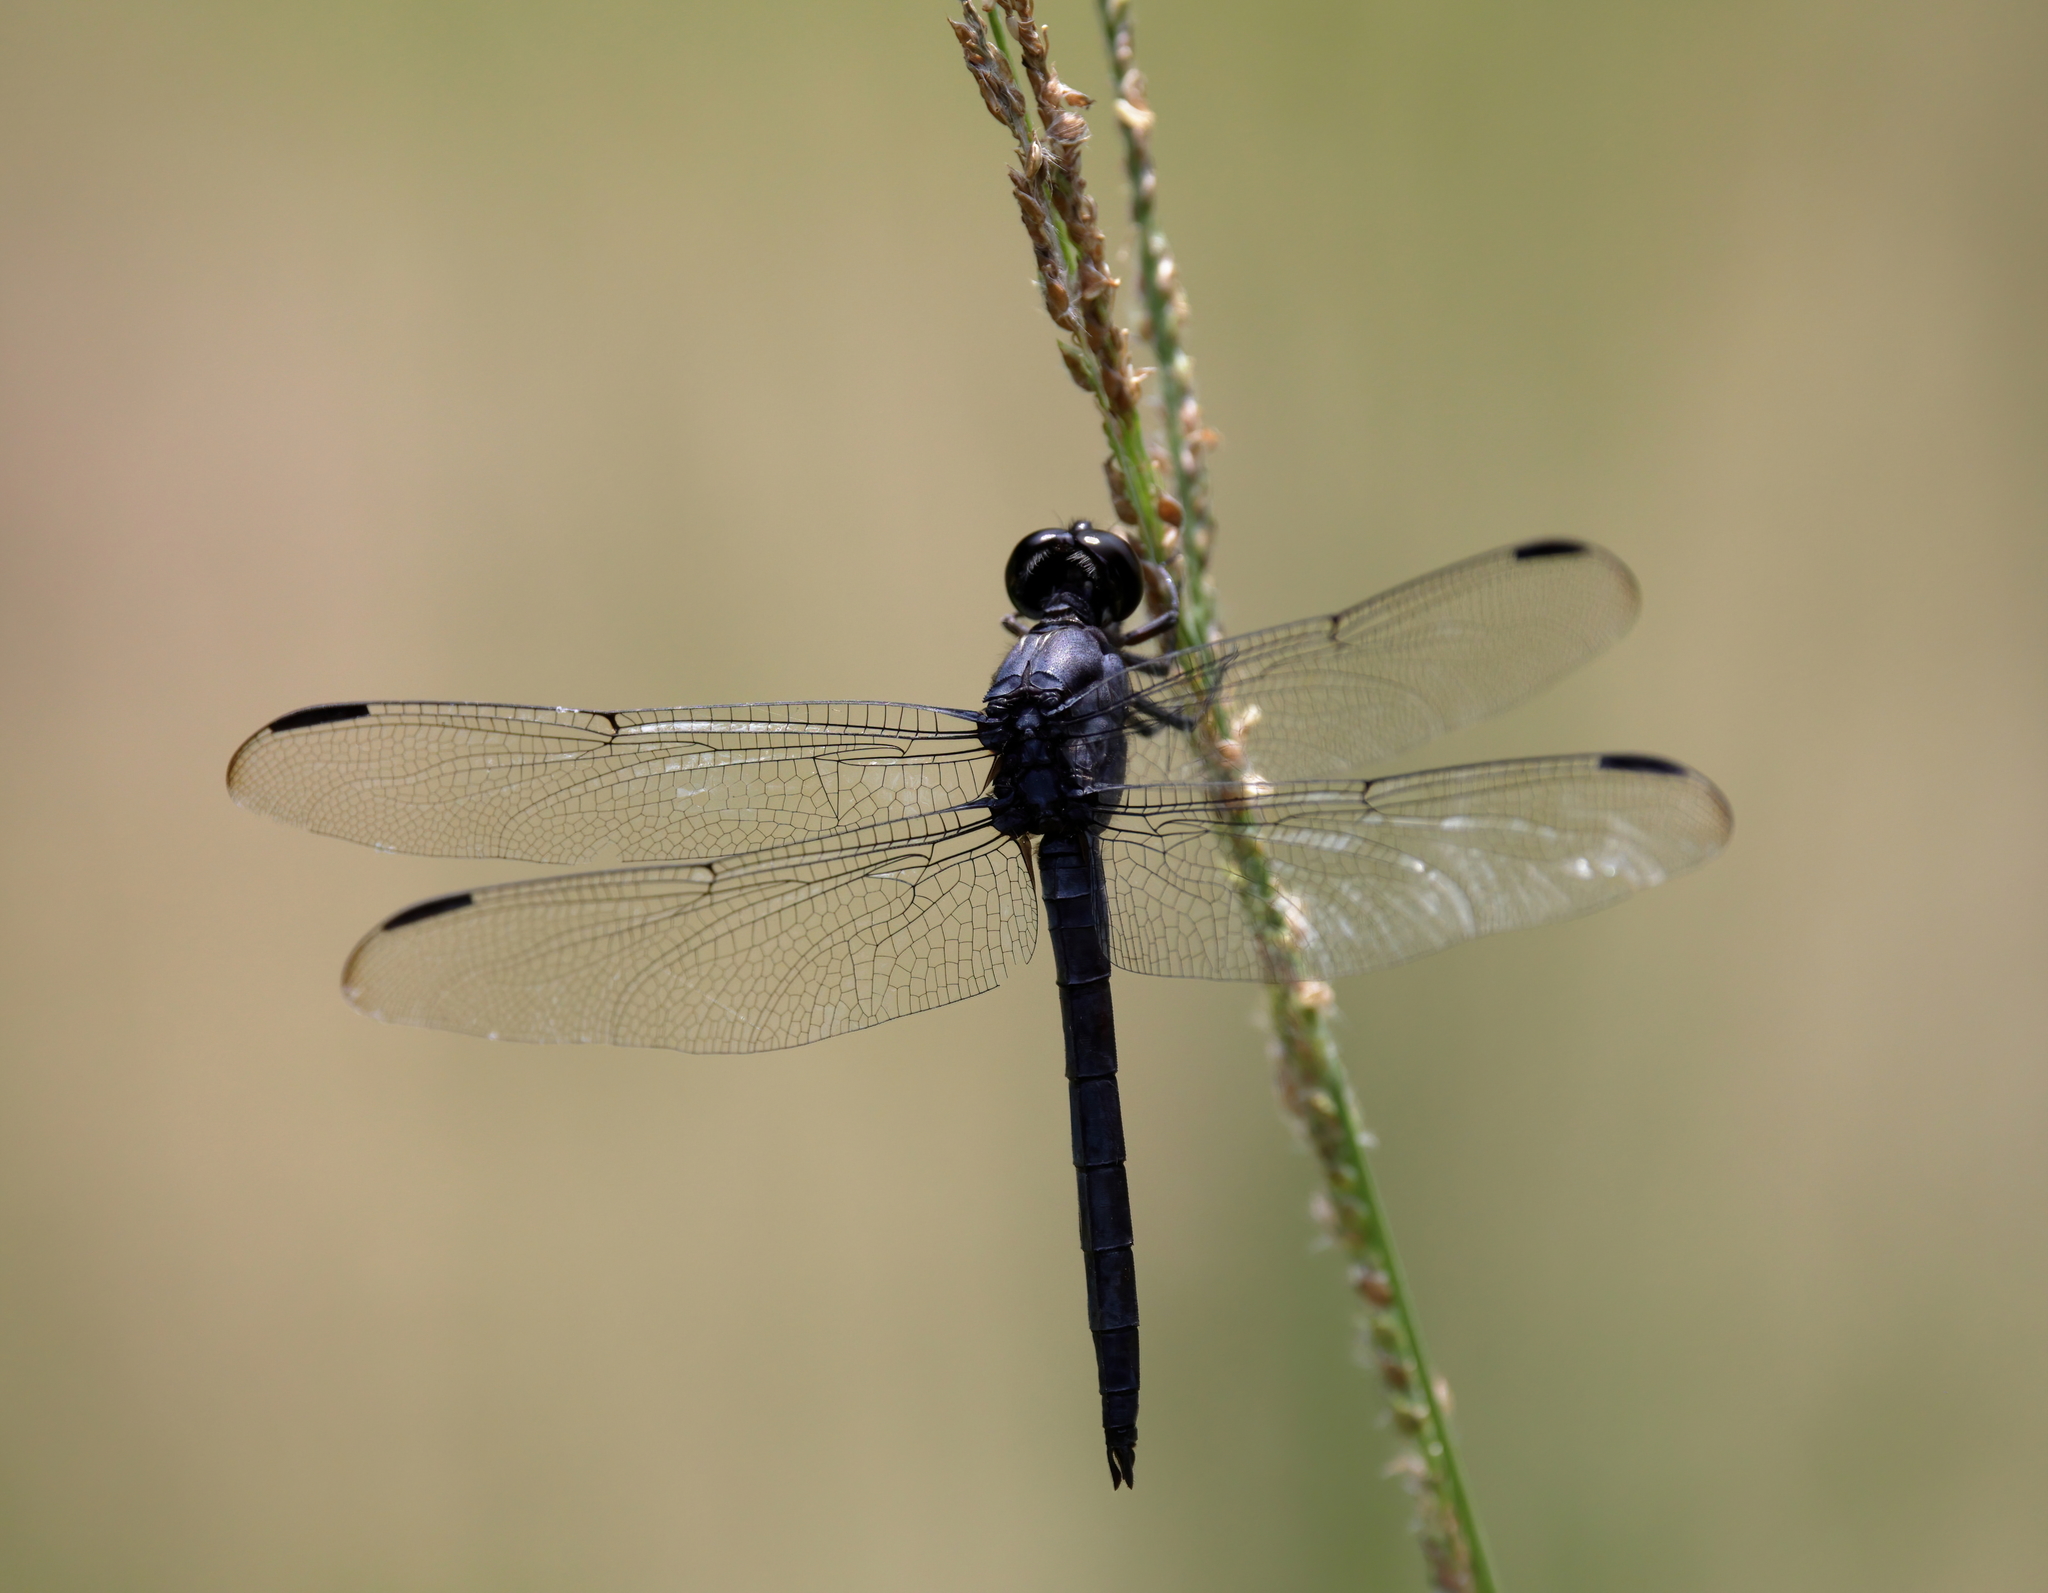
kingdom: Animalia
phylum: Arthropoda
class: Insecta
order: Odonata
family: Libellulidae
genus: Libellula
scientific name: Libellula incesta
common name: Slaty skimmer
